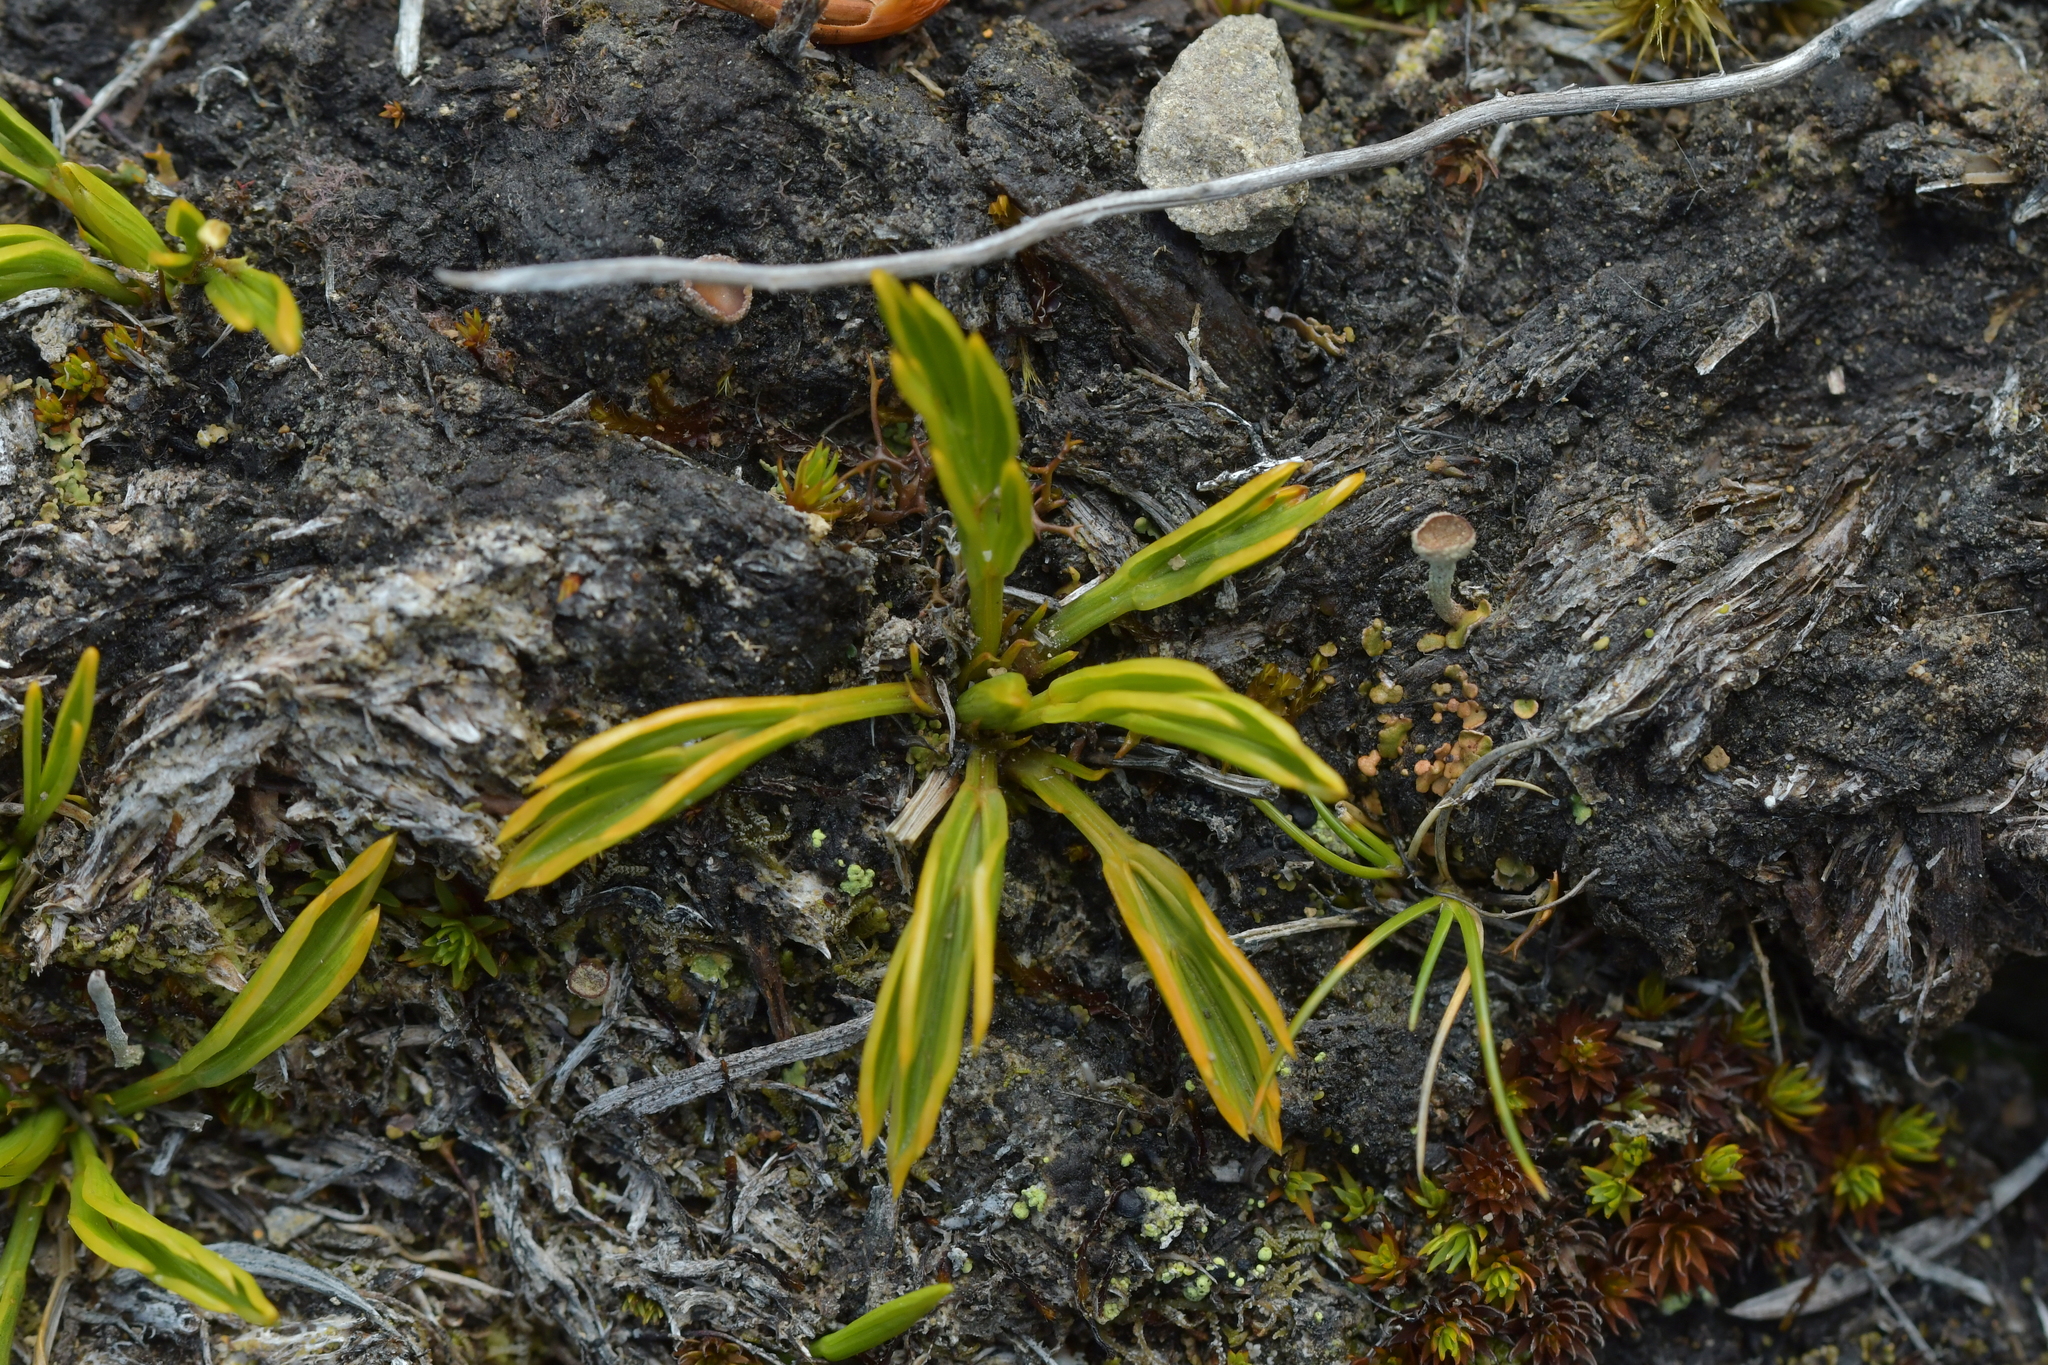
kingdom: Plantae
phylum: Tracheophyta
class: Magnoliopsida
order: Apiales
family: Apiaceae
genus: Aciphylla
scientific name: Aciphylla monroi
